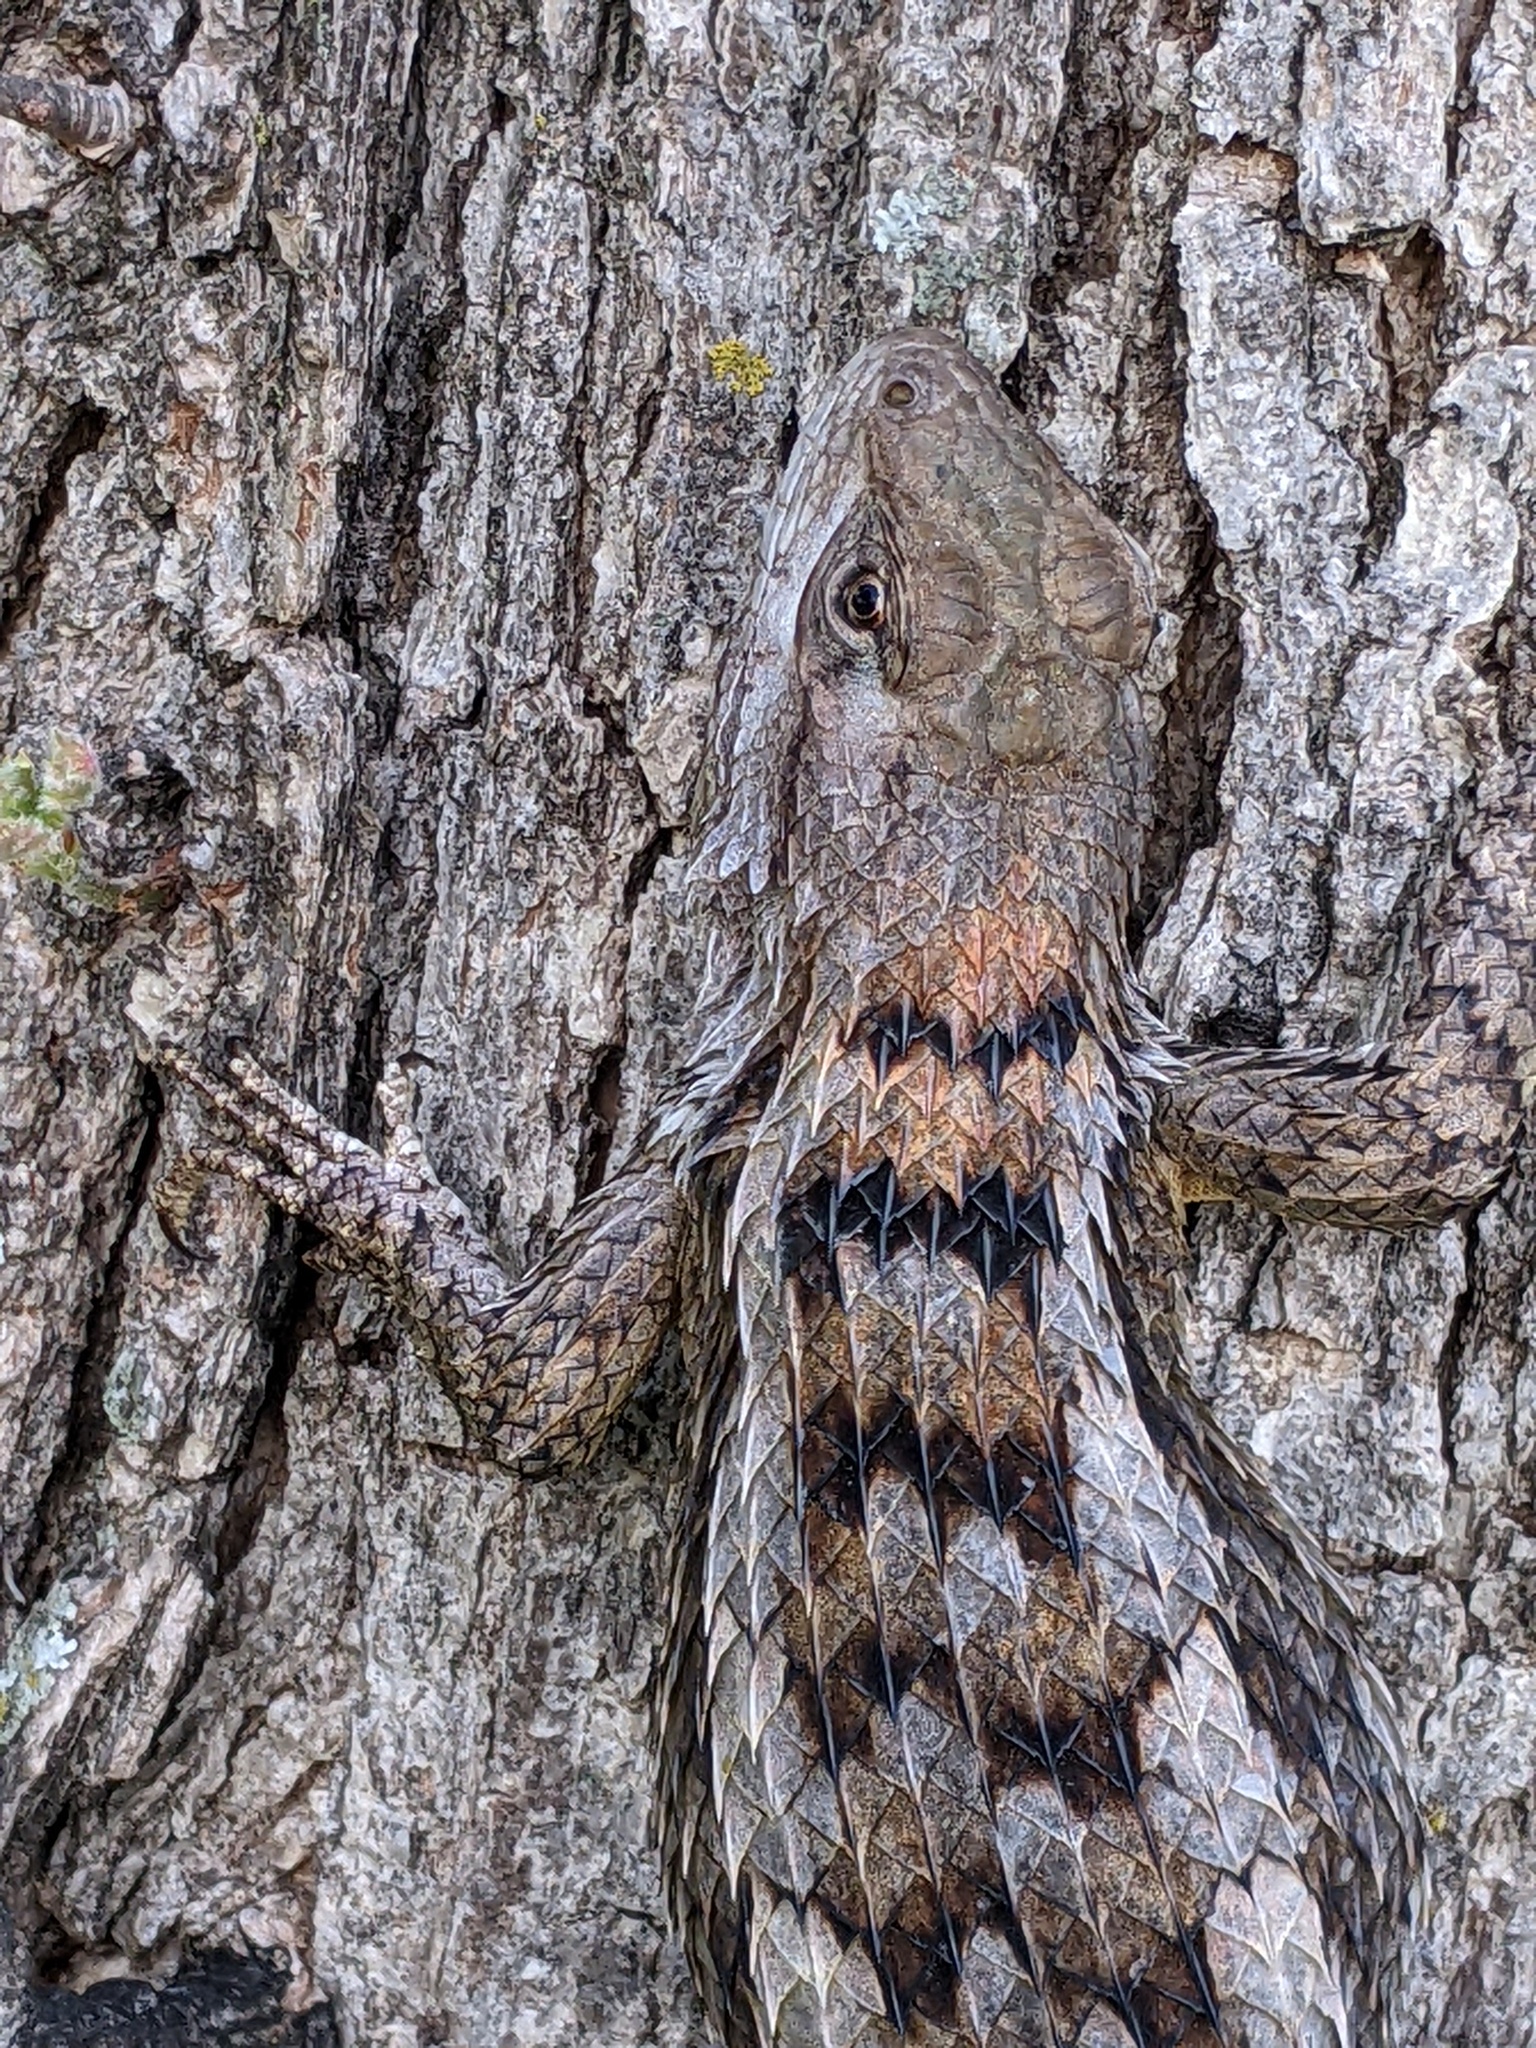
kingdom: Animalia
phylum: Chordata
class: Squamata
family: Phrynosomatidae
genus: Sceloporus
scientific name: Sceloporus olivaceus
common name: Texas spiny lizard
